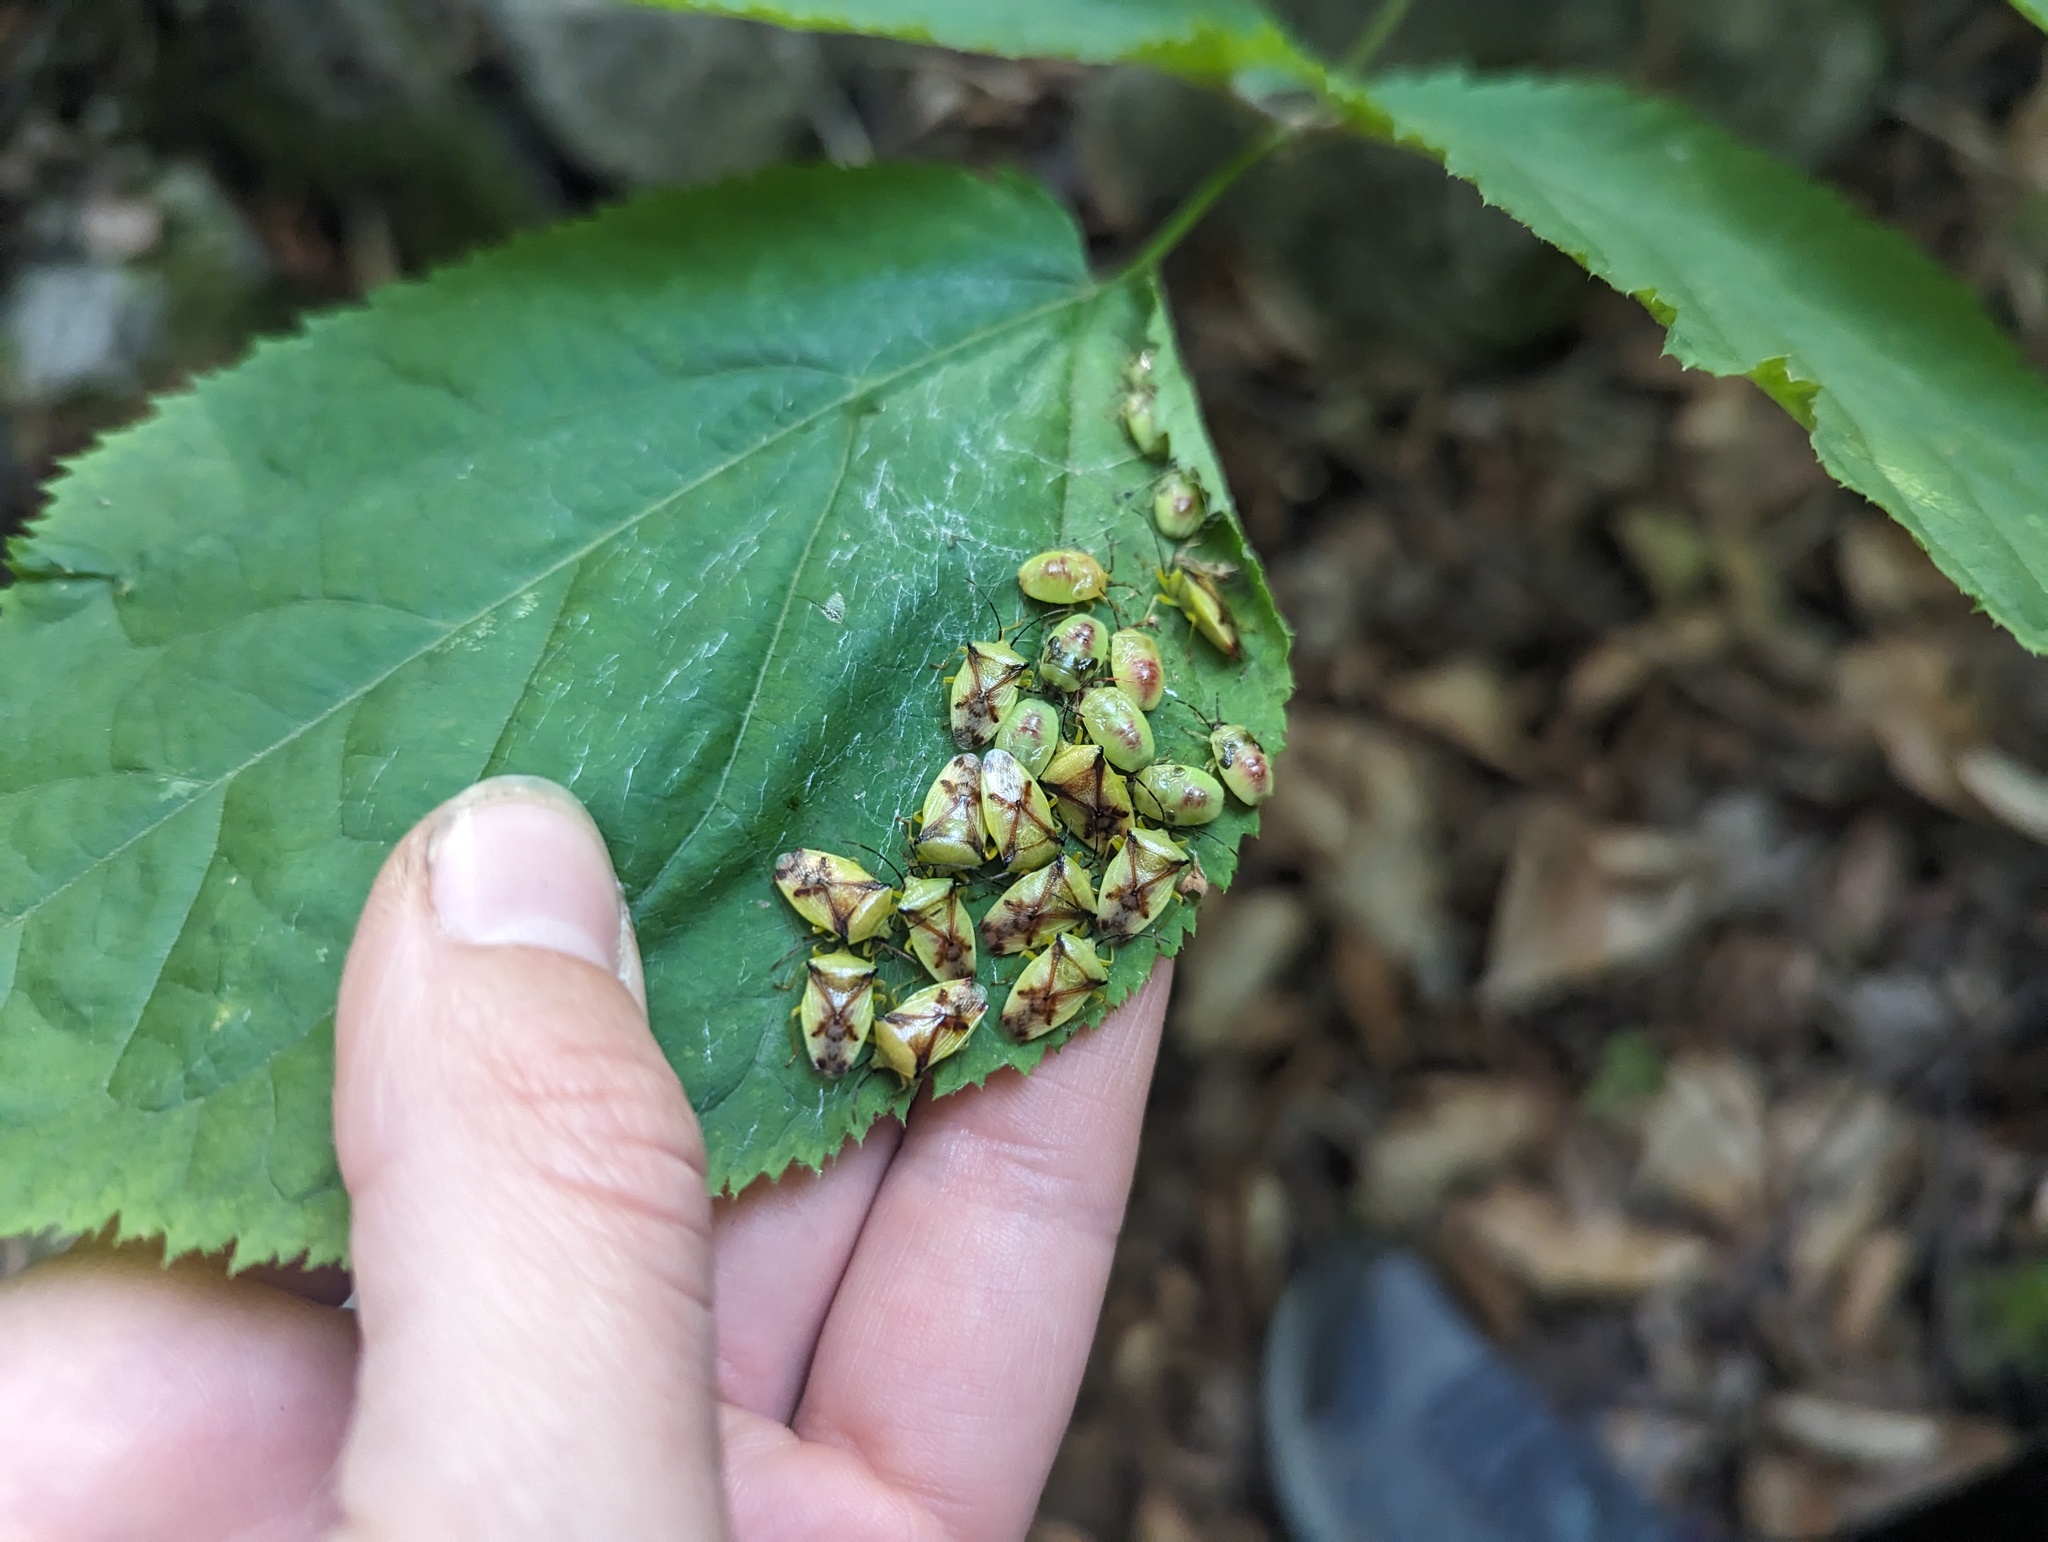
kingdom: Animalia
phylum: Arthropoda
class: Insecta
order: Hemiptera
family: Acanthosomatidae
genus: Elasmostethus
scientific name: Elasmostethus atricornis
